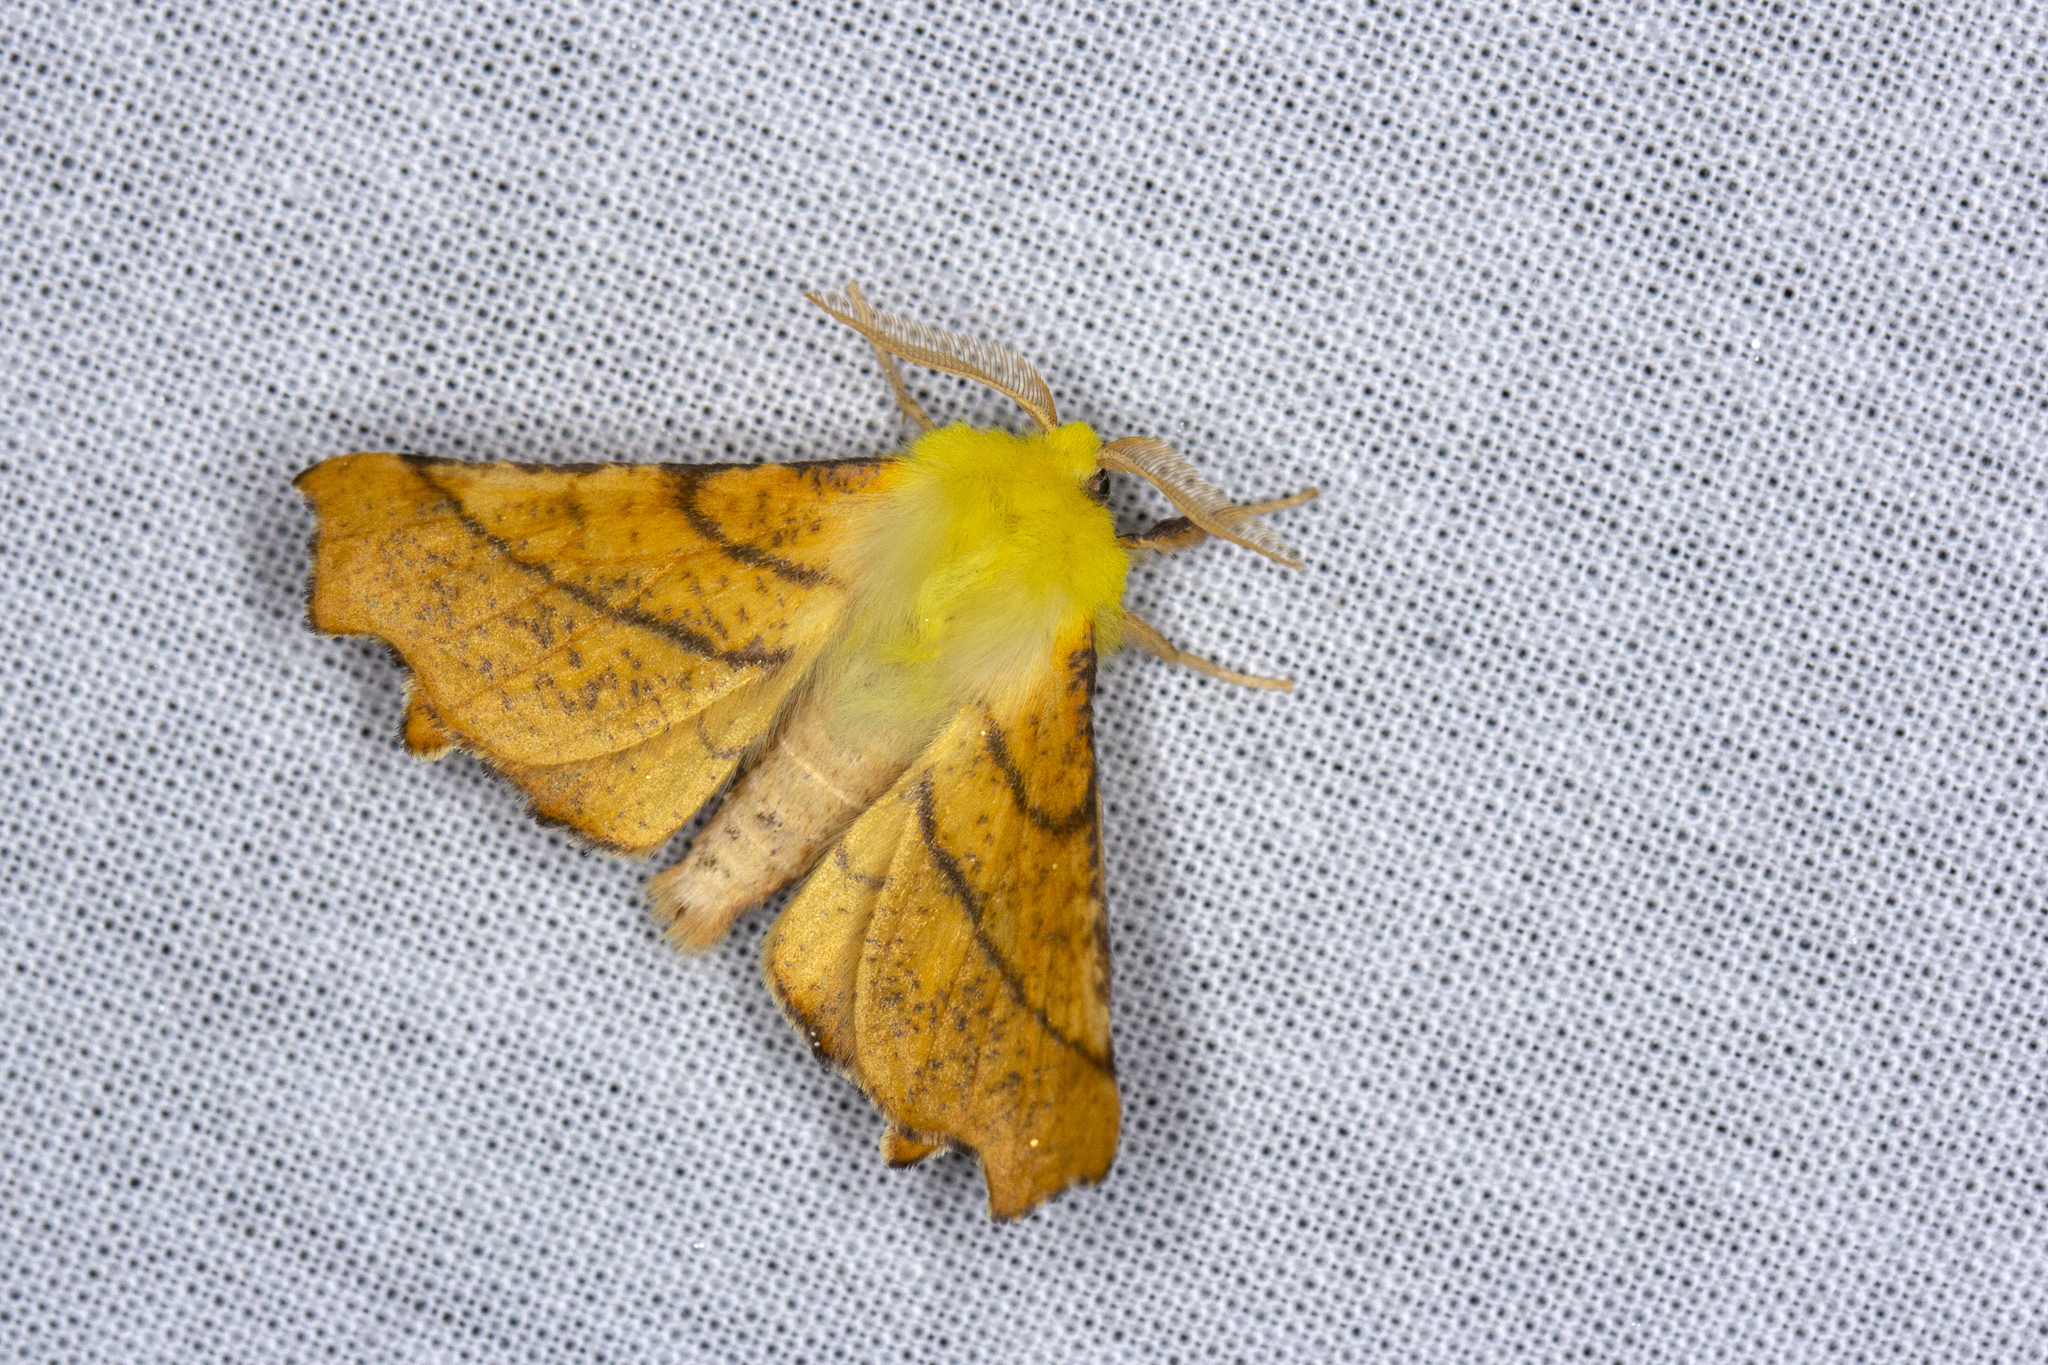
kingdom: Animalia
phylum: Arthropoda
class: Insecta
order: Lepidoptera
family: Geometridae
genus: Ennomos
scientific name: Ennomos alniaria
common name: Canary-shouldered thorn
